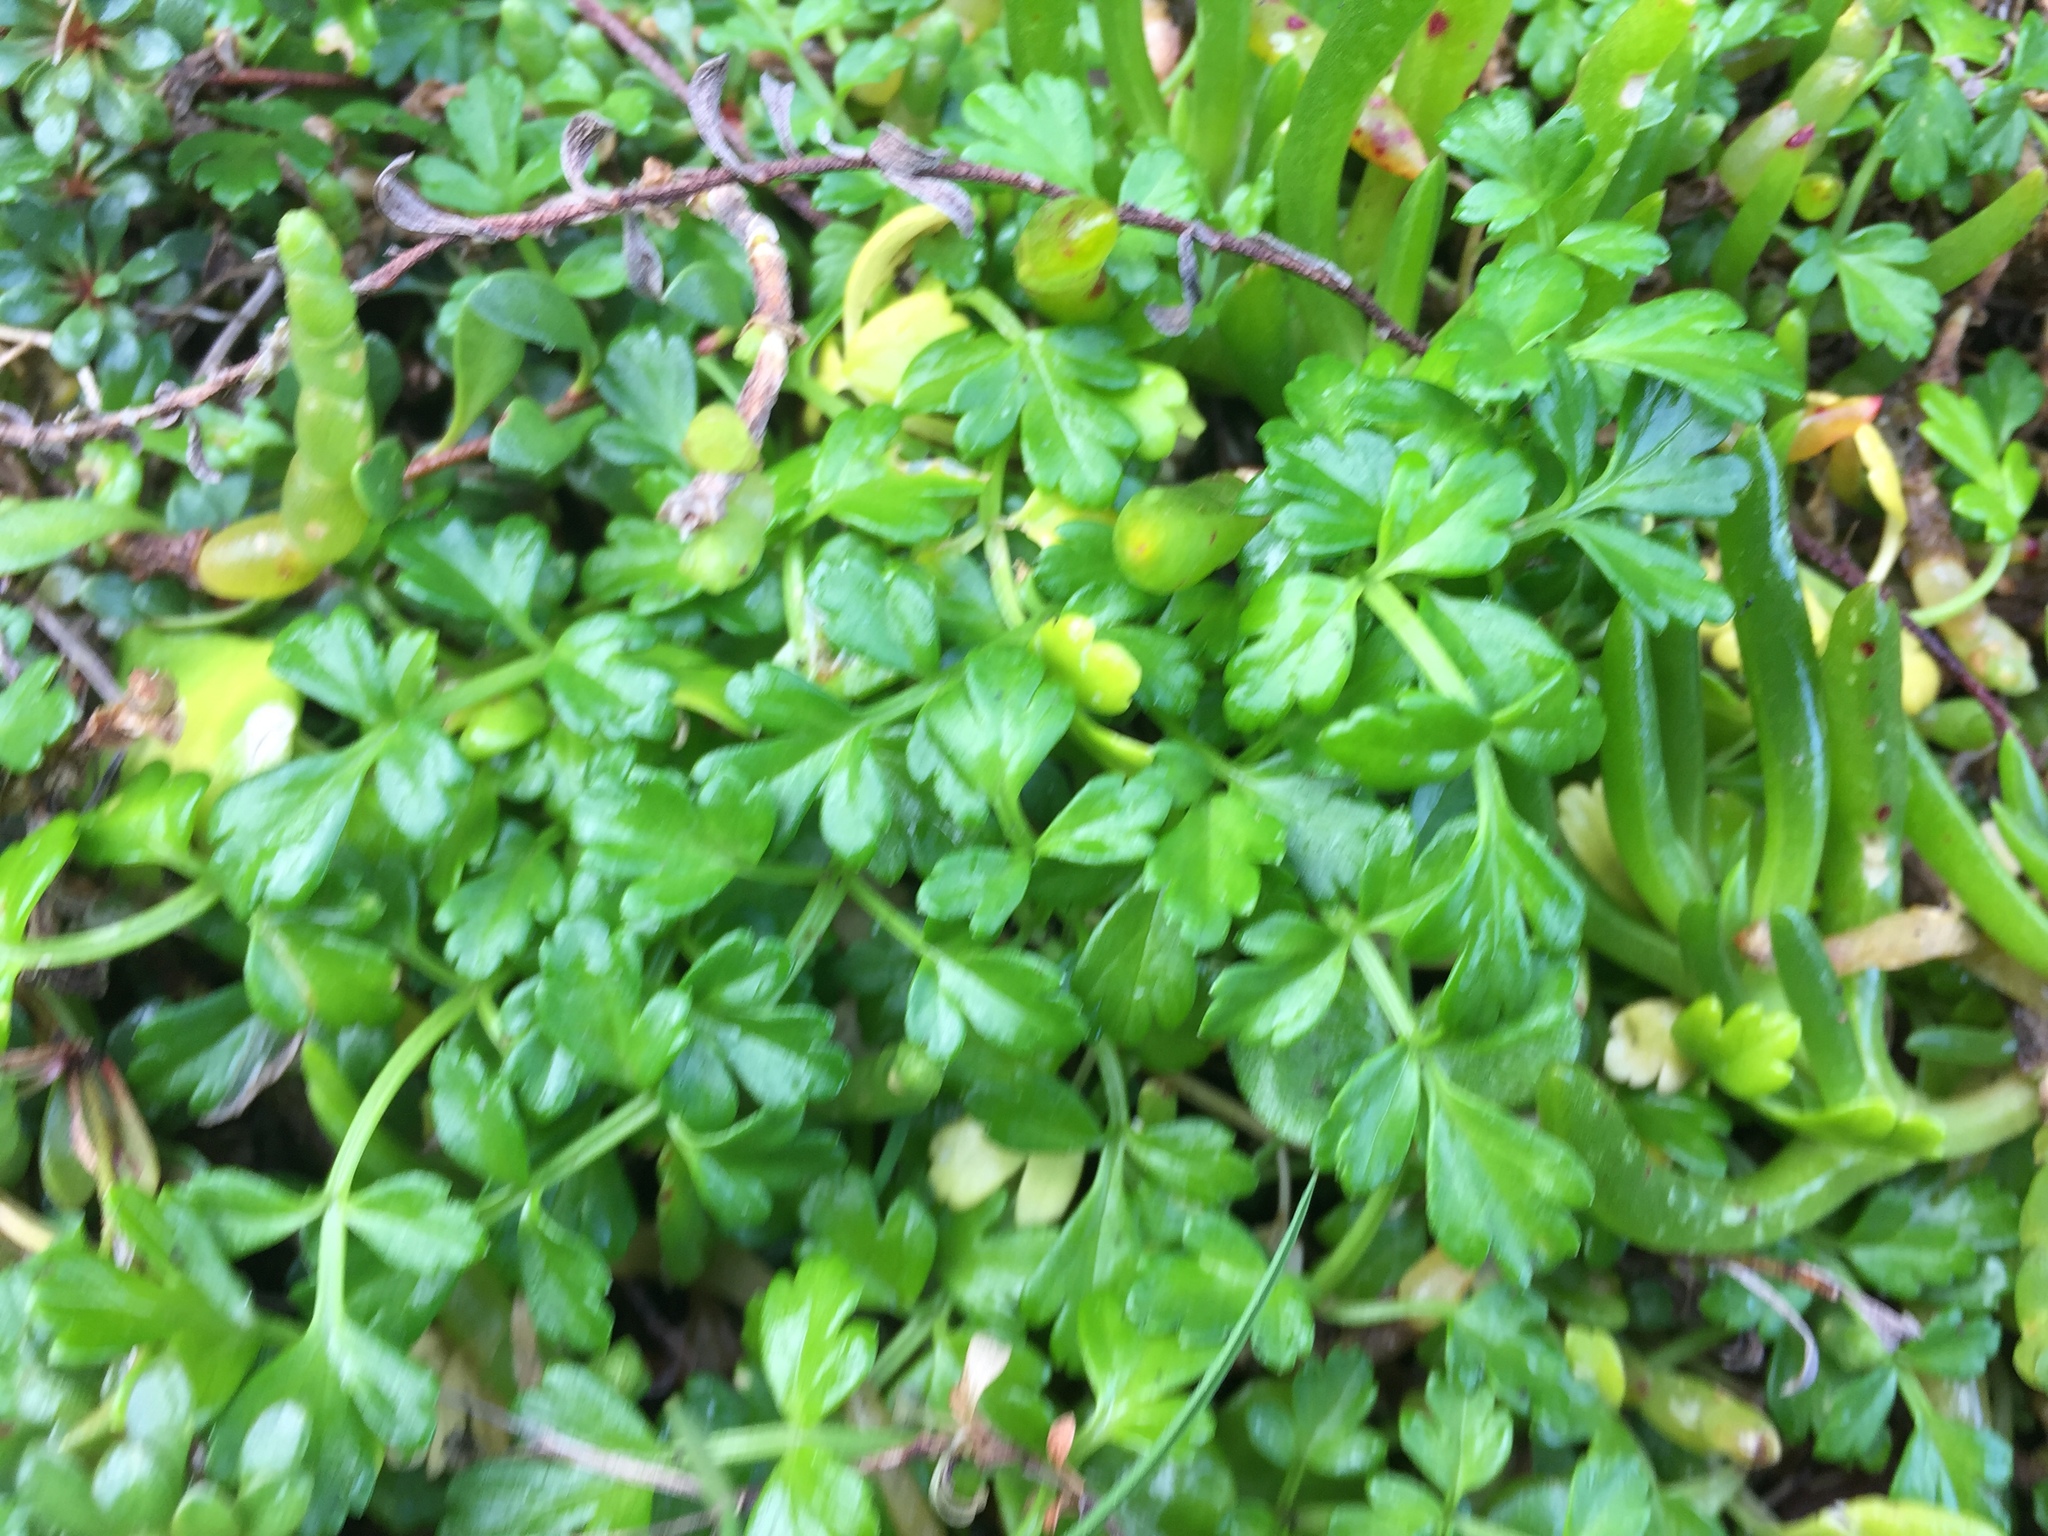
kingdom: Plantae
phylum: Tracheophyta
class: Magnoliopsida
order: Apiales
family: Apiaceae
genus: Apium
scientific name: Apium prostratum
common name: Prostrate marshwort
